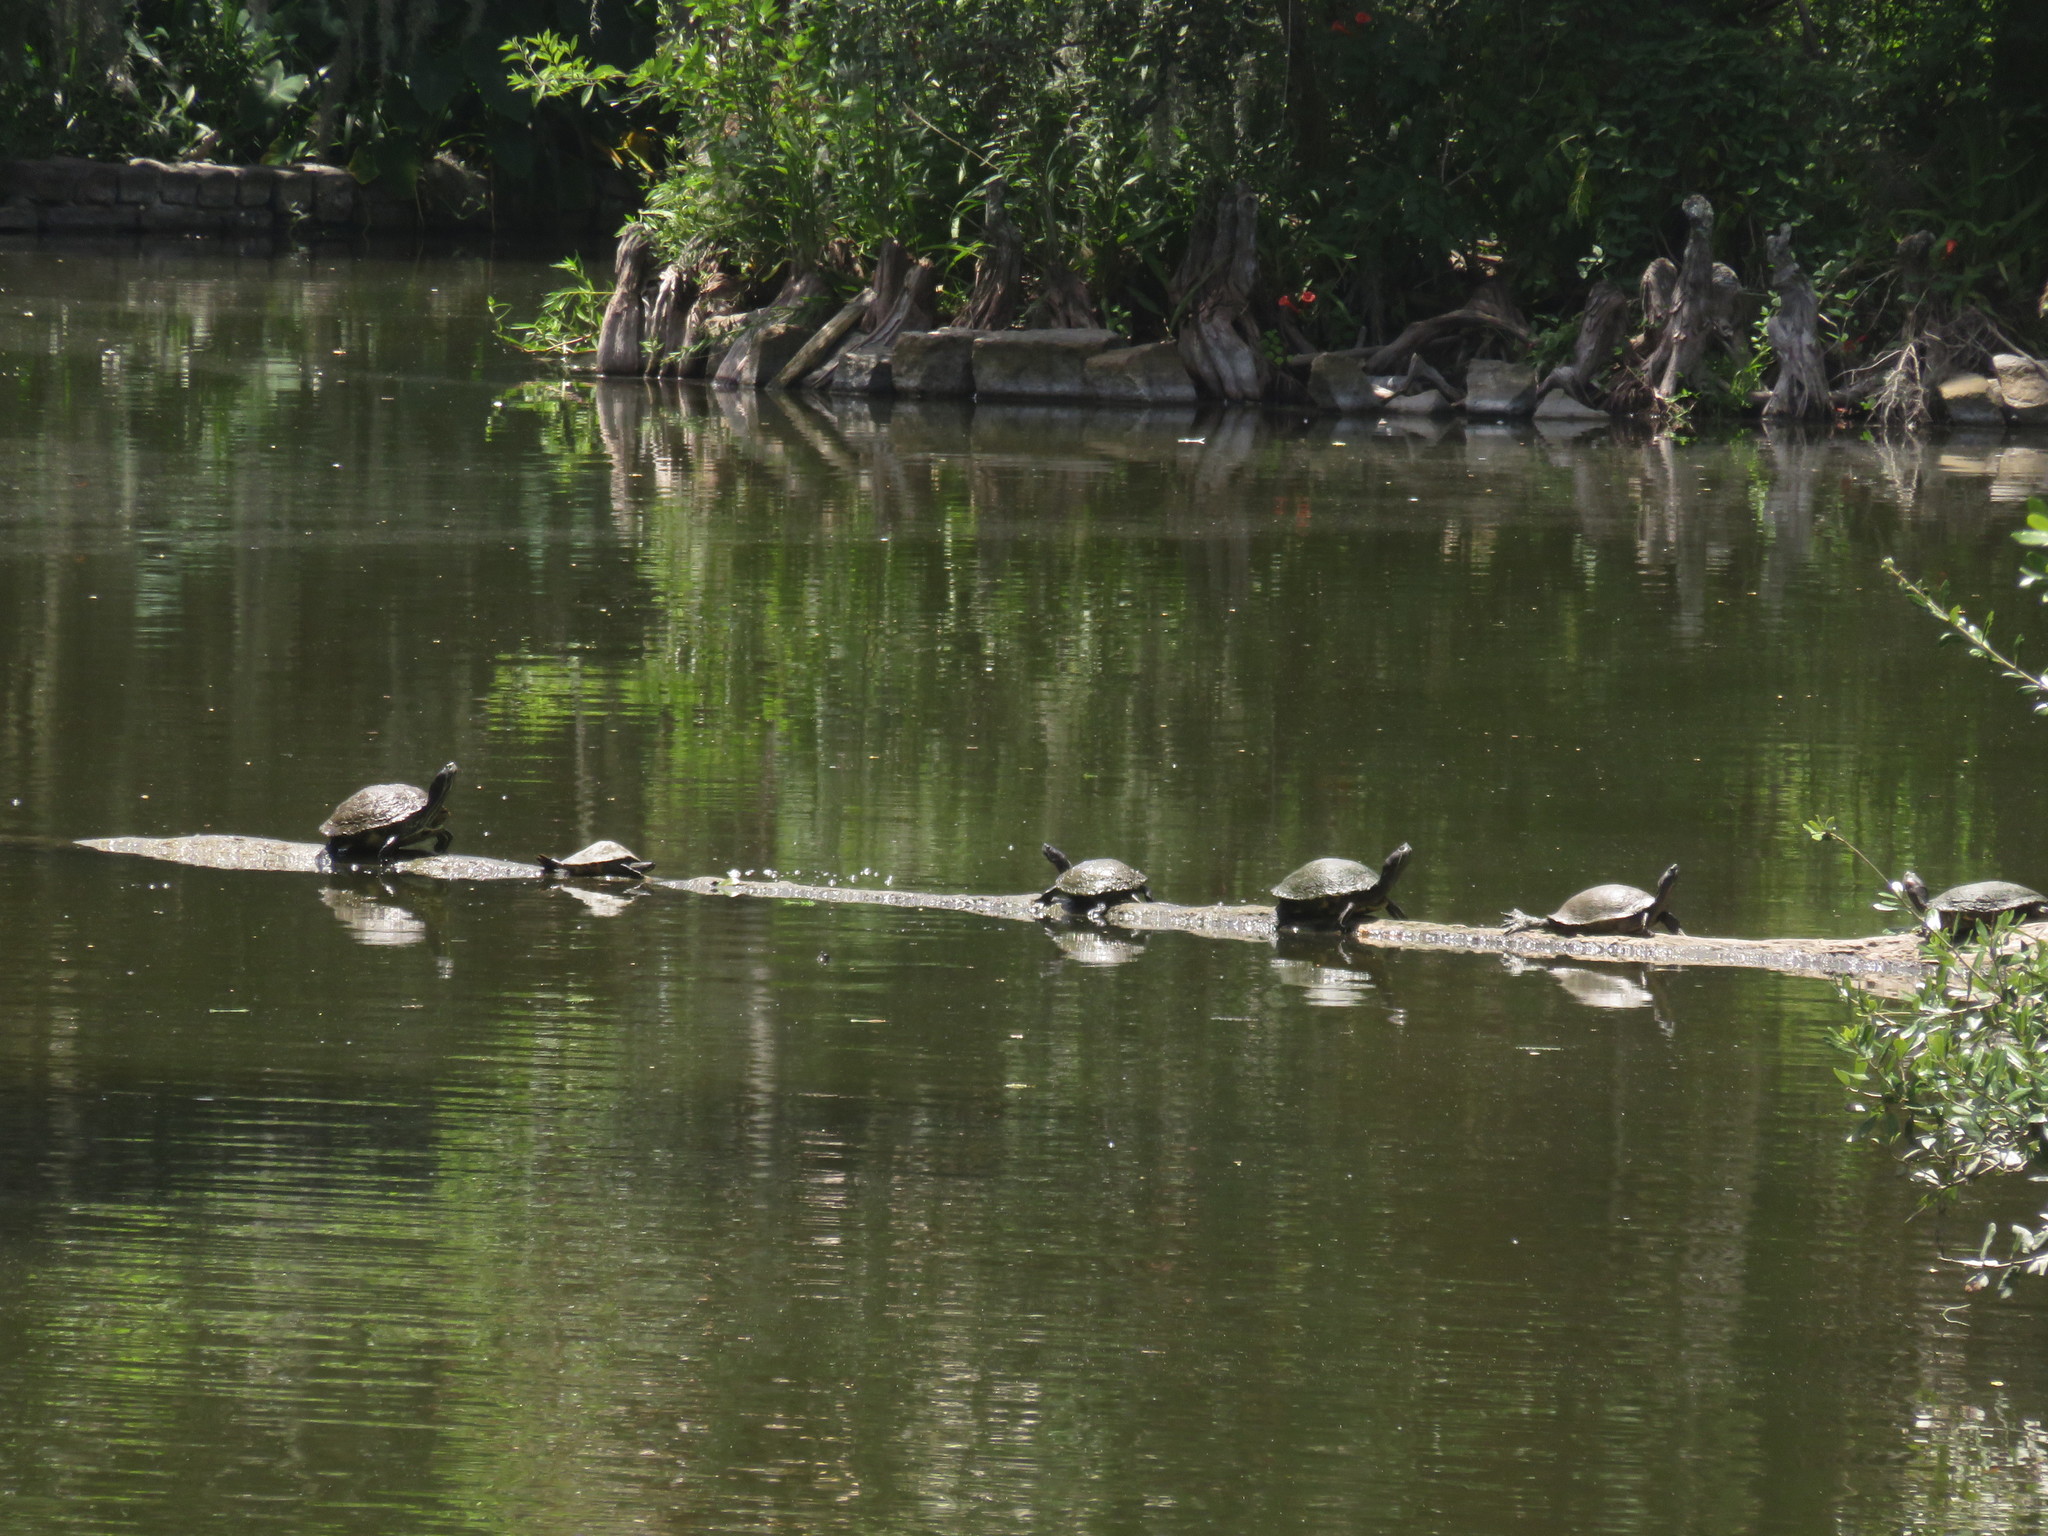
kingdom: Animalia
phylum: Chordata
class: Testudines
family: Emydidae
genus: Trachemys
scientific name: Trachemys scripta
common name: Slider
